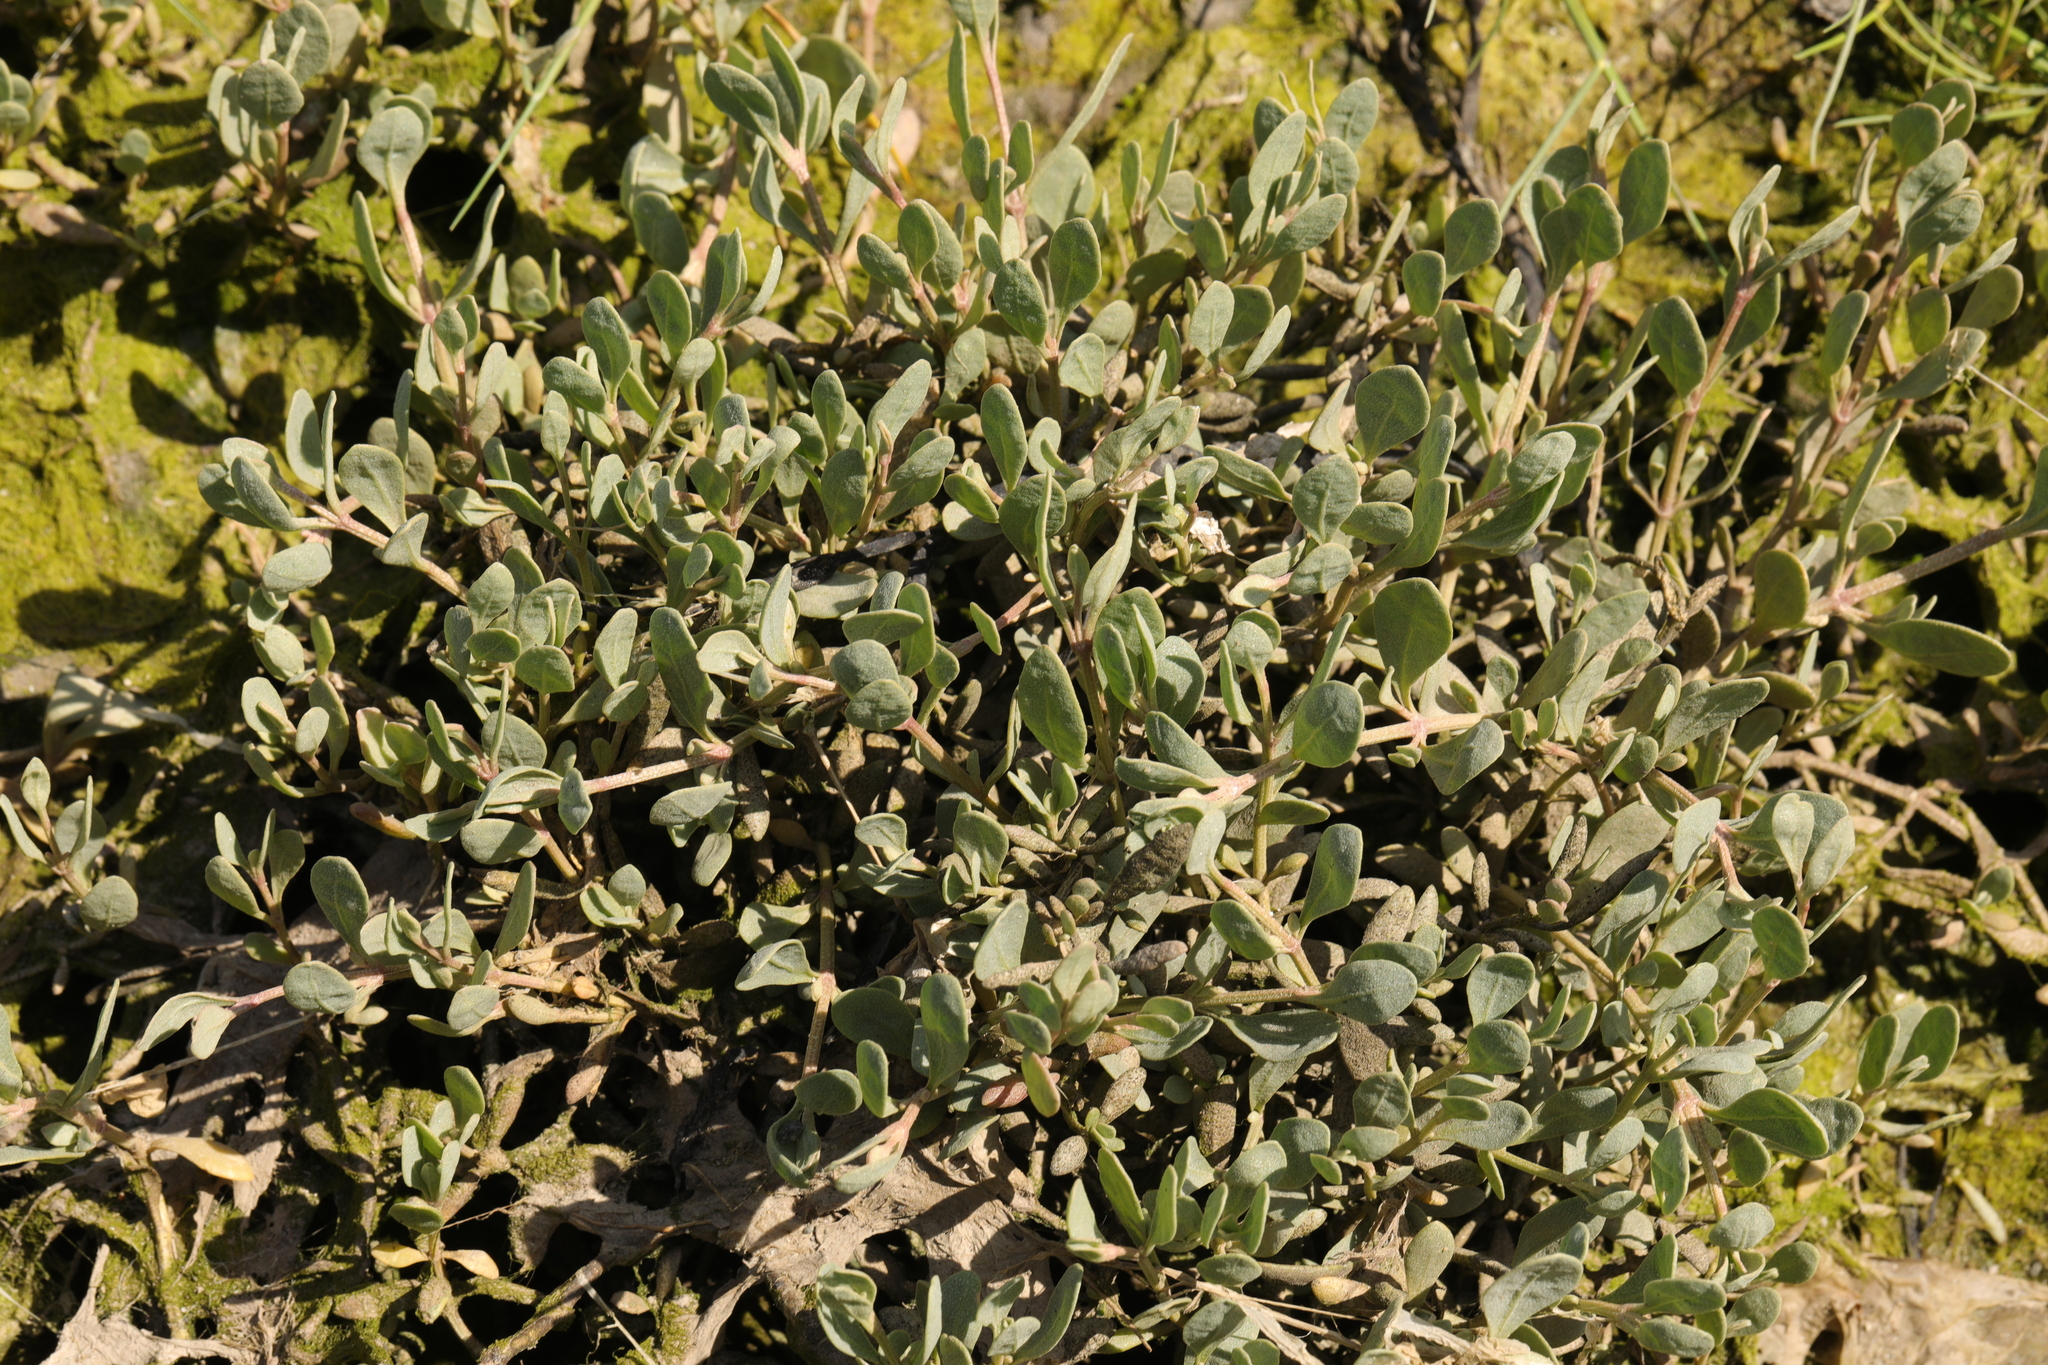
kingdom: Plantae
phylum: Tracheophyta
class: Magnoliopsida
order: Caryophyllales
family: Amaranthaceae
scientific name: Amaranthaceae
